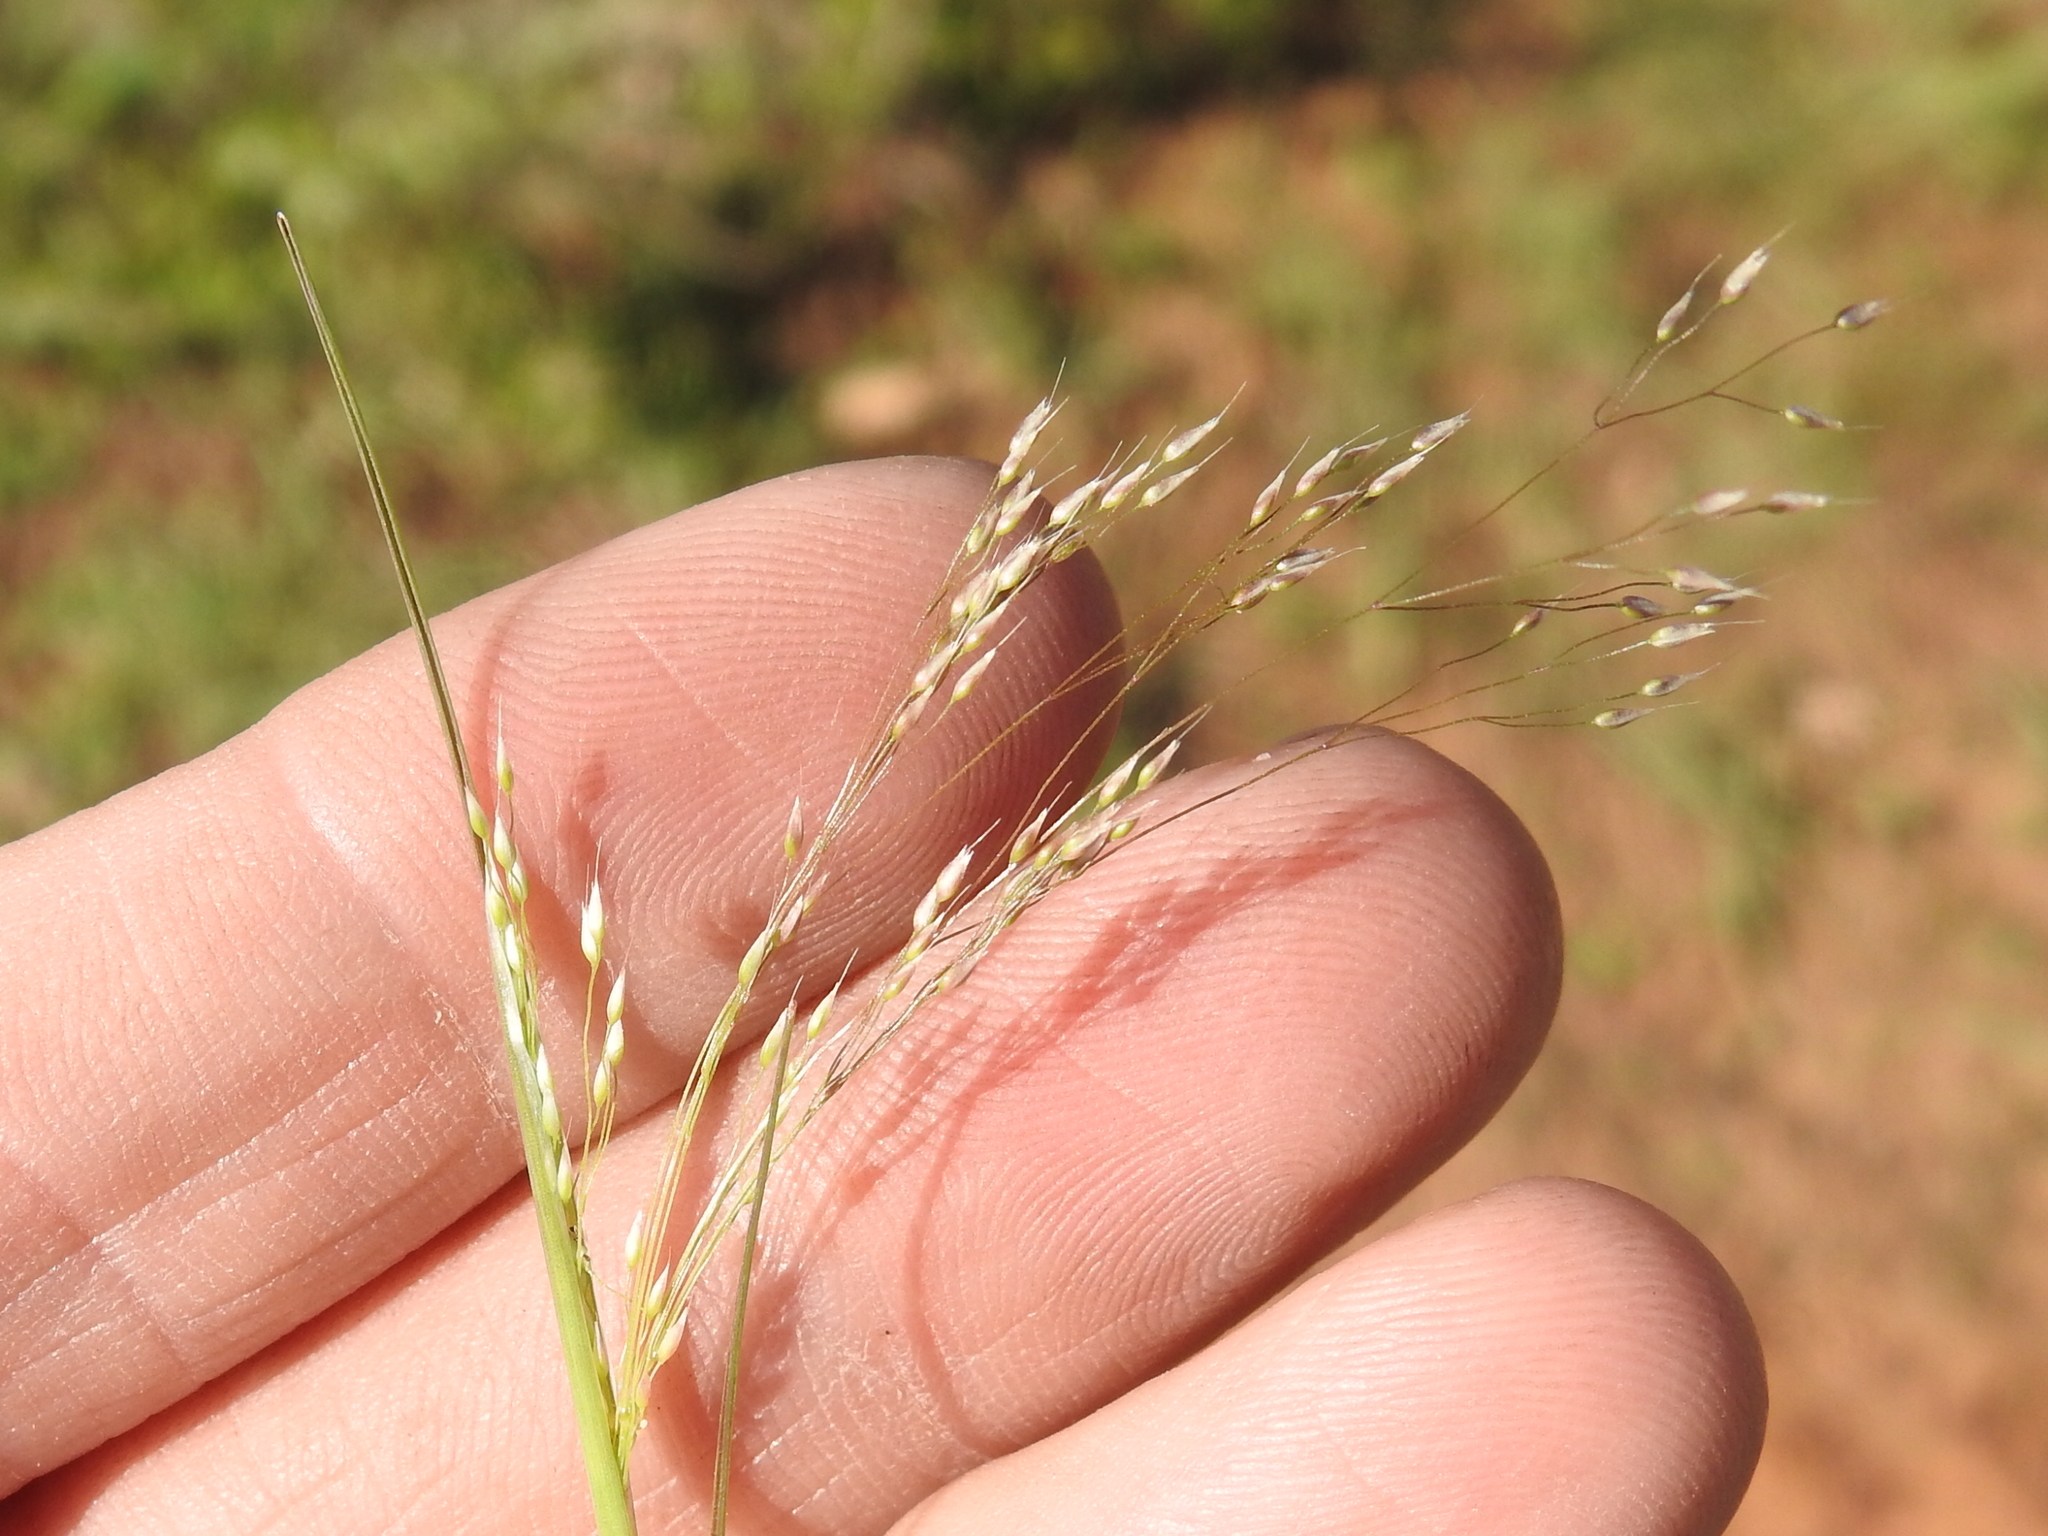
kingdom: Plantae
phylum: Tracheophyta
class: Liliopsida
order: Poales
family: Poaceae
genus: Aira
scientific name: Aira caryophyllea
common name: Silver hairgrass
